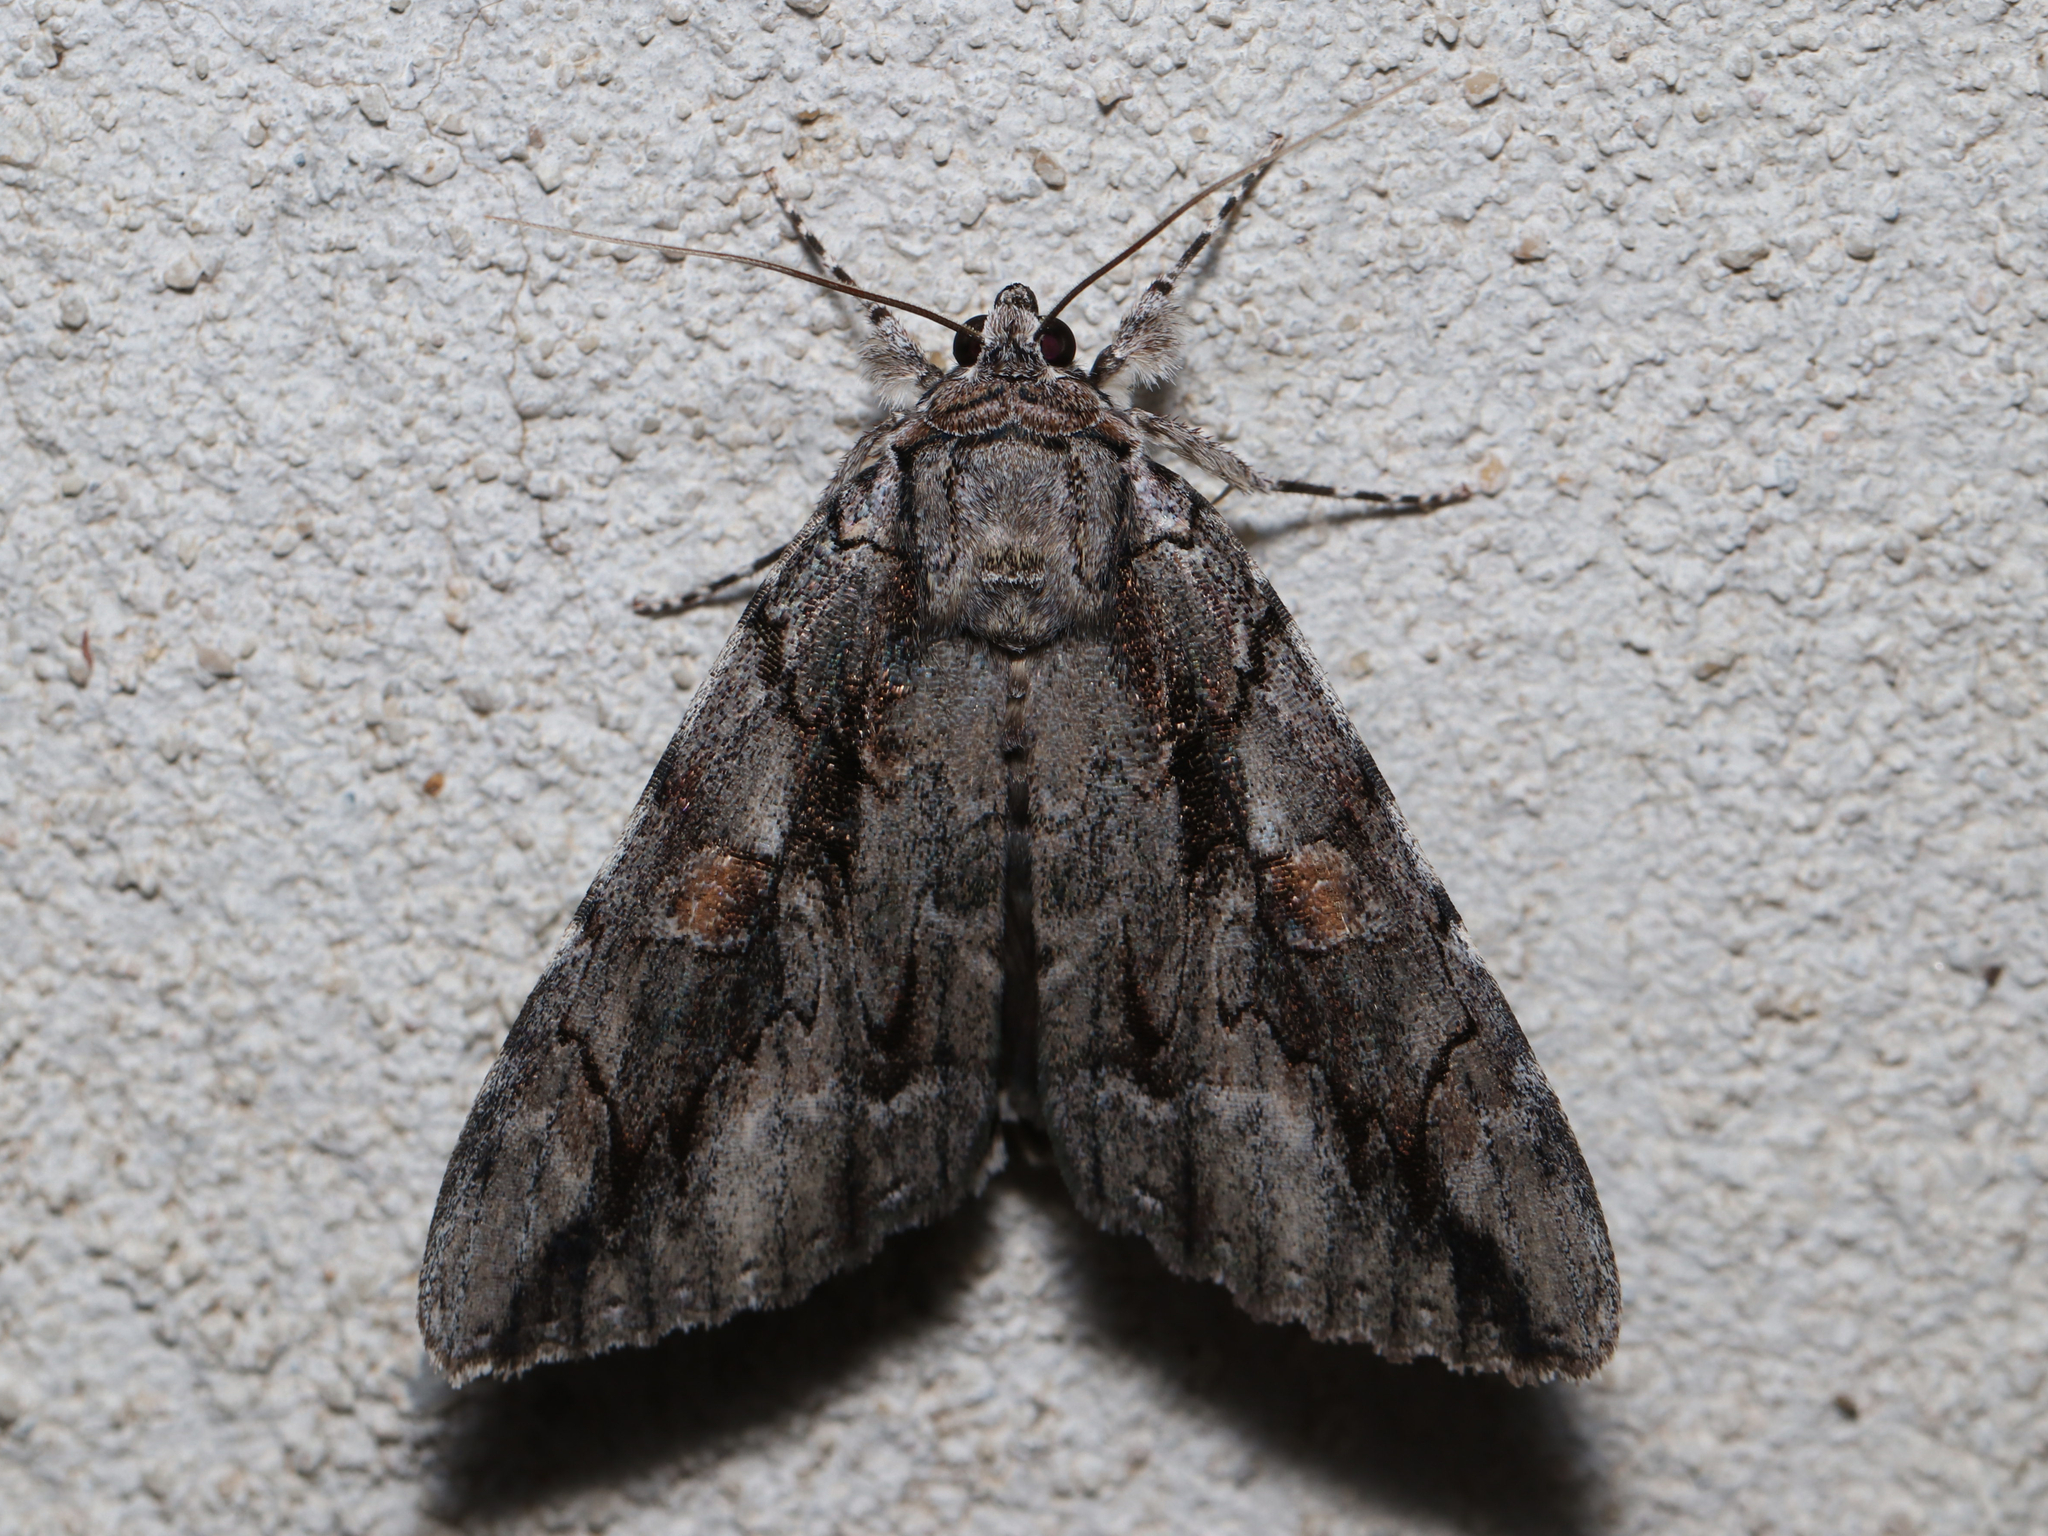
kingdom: Animalia
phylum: Arthropoda
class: Insecta
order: Lepidoptera
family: Erebidae
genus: Catocala
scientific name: Catocala flebilis
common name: Mournful underwing
